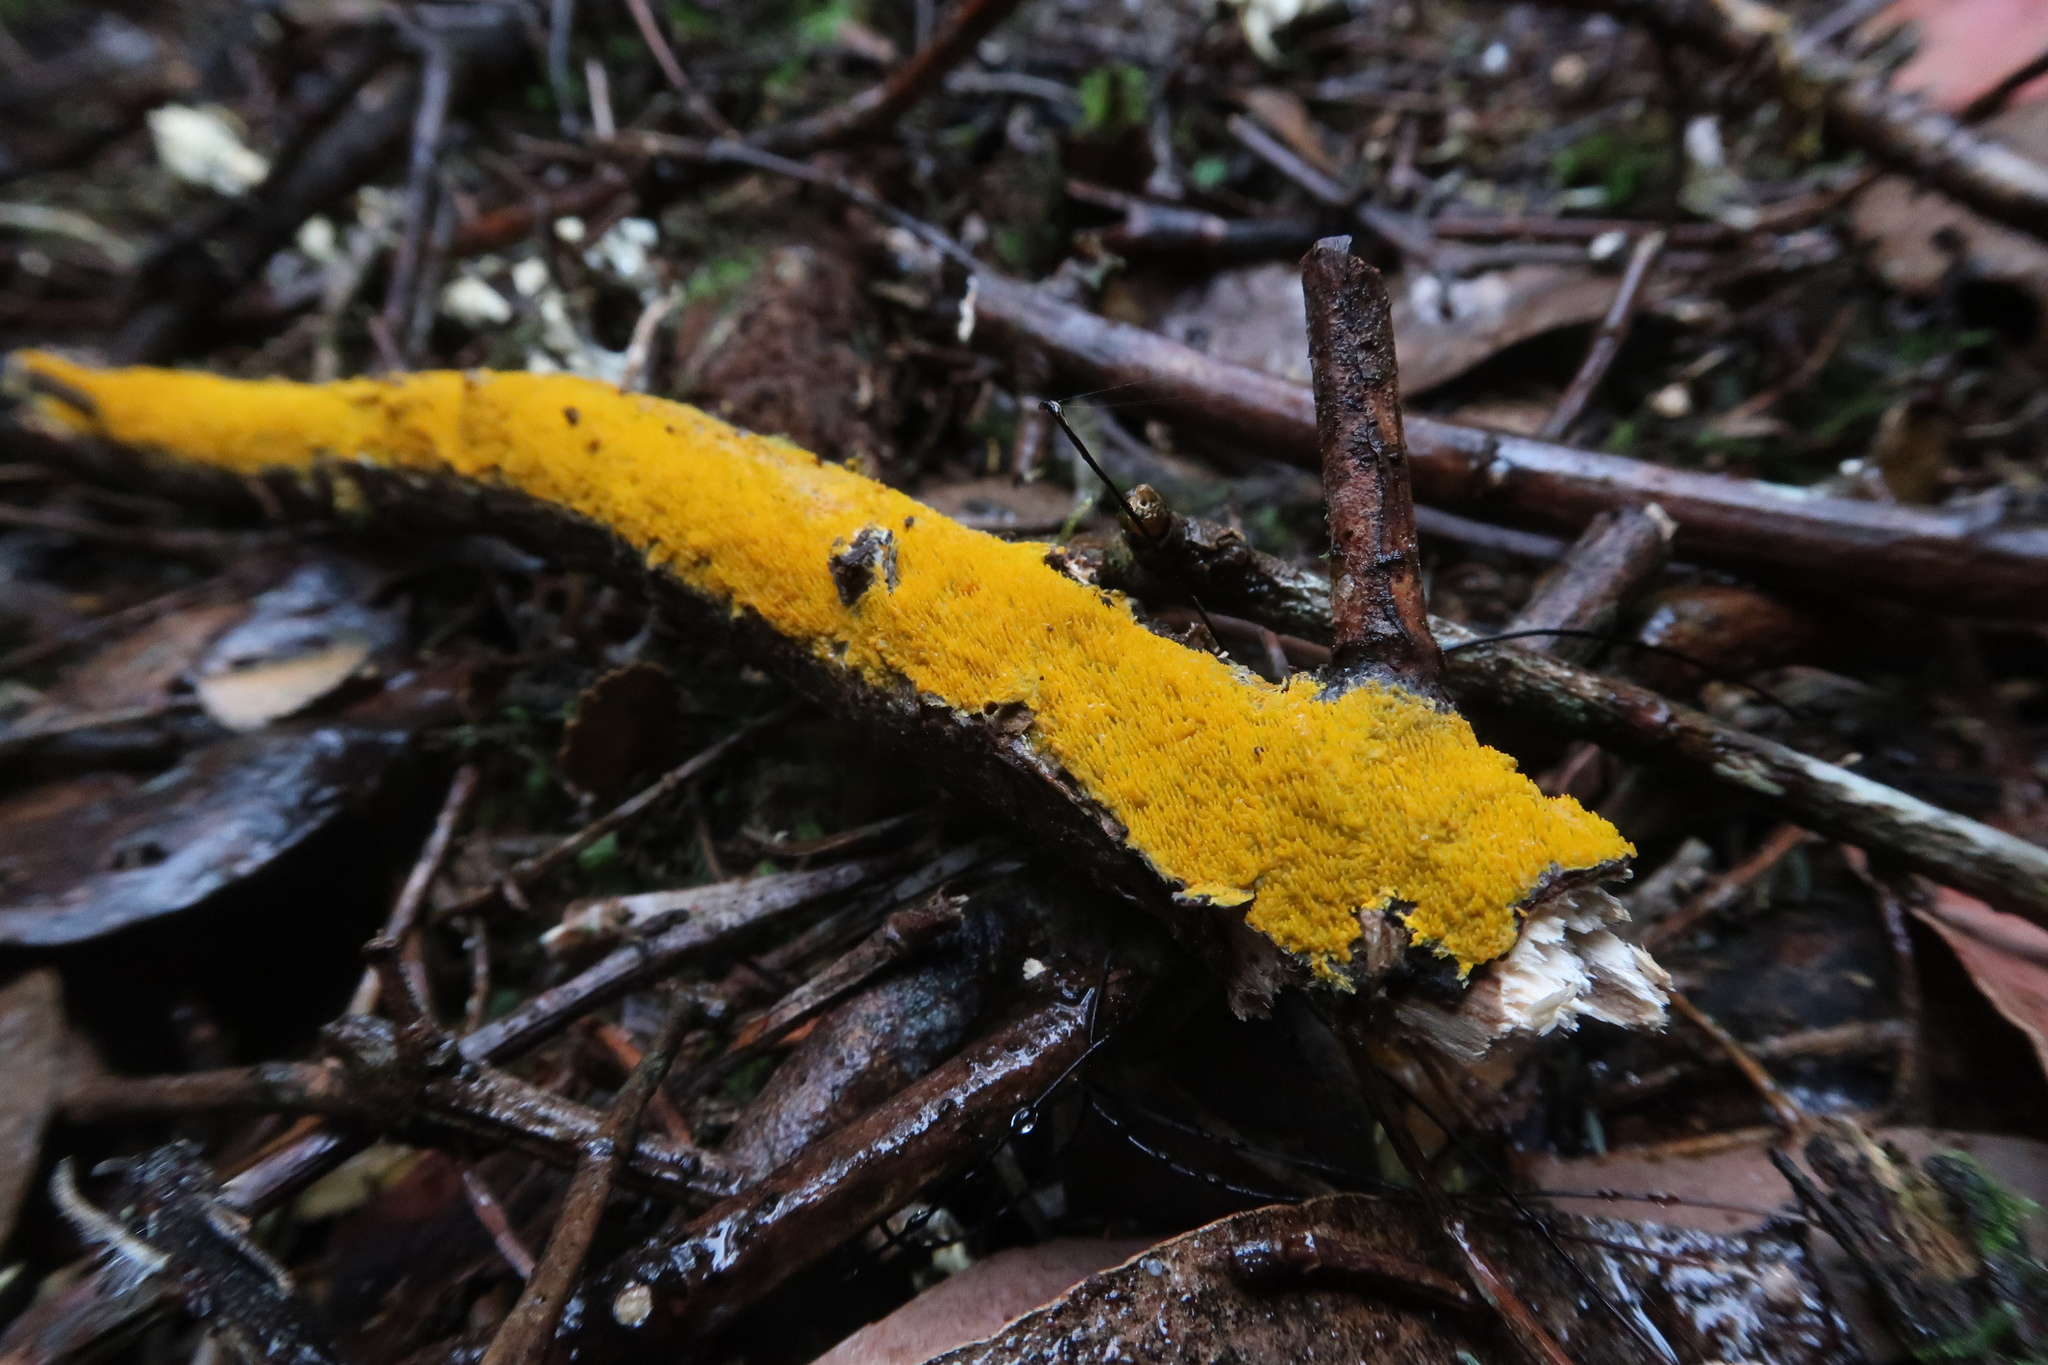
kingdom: Fungi
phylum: Basidiomycota
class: Agaricomycetes
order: Polyporales
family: Meruliaceae
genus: Phlebia
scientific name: Phlebia subceracea
